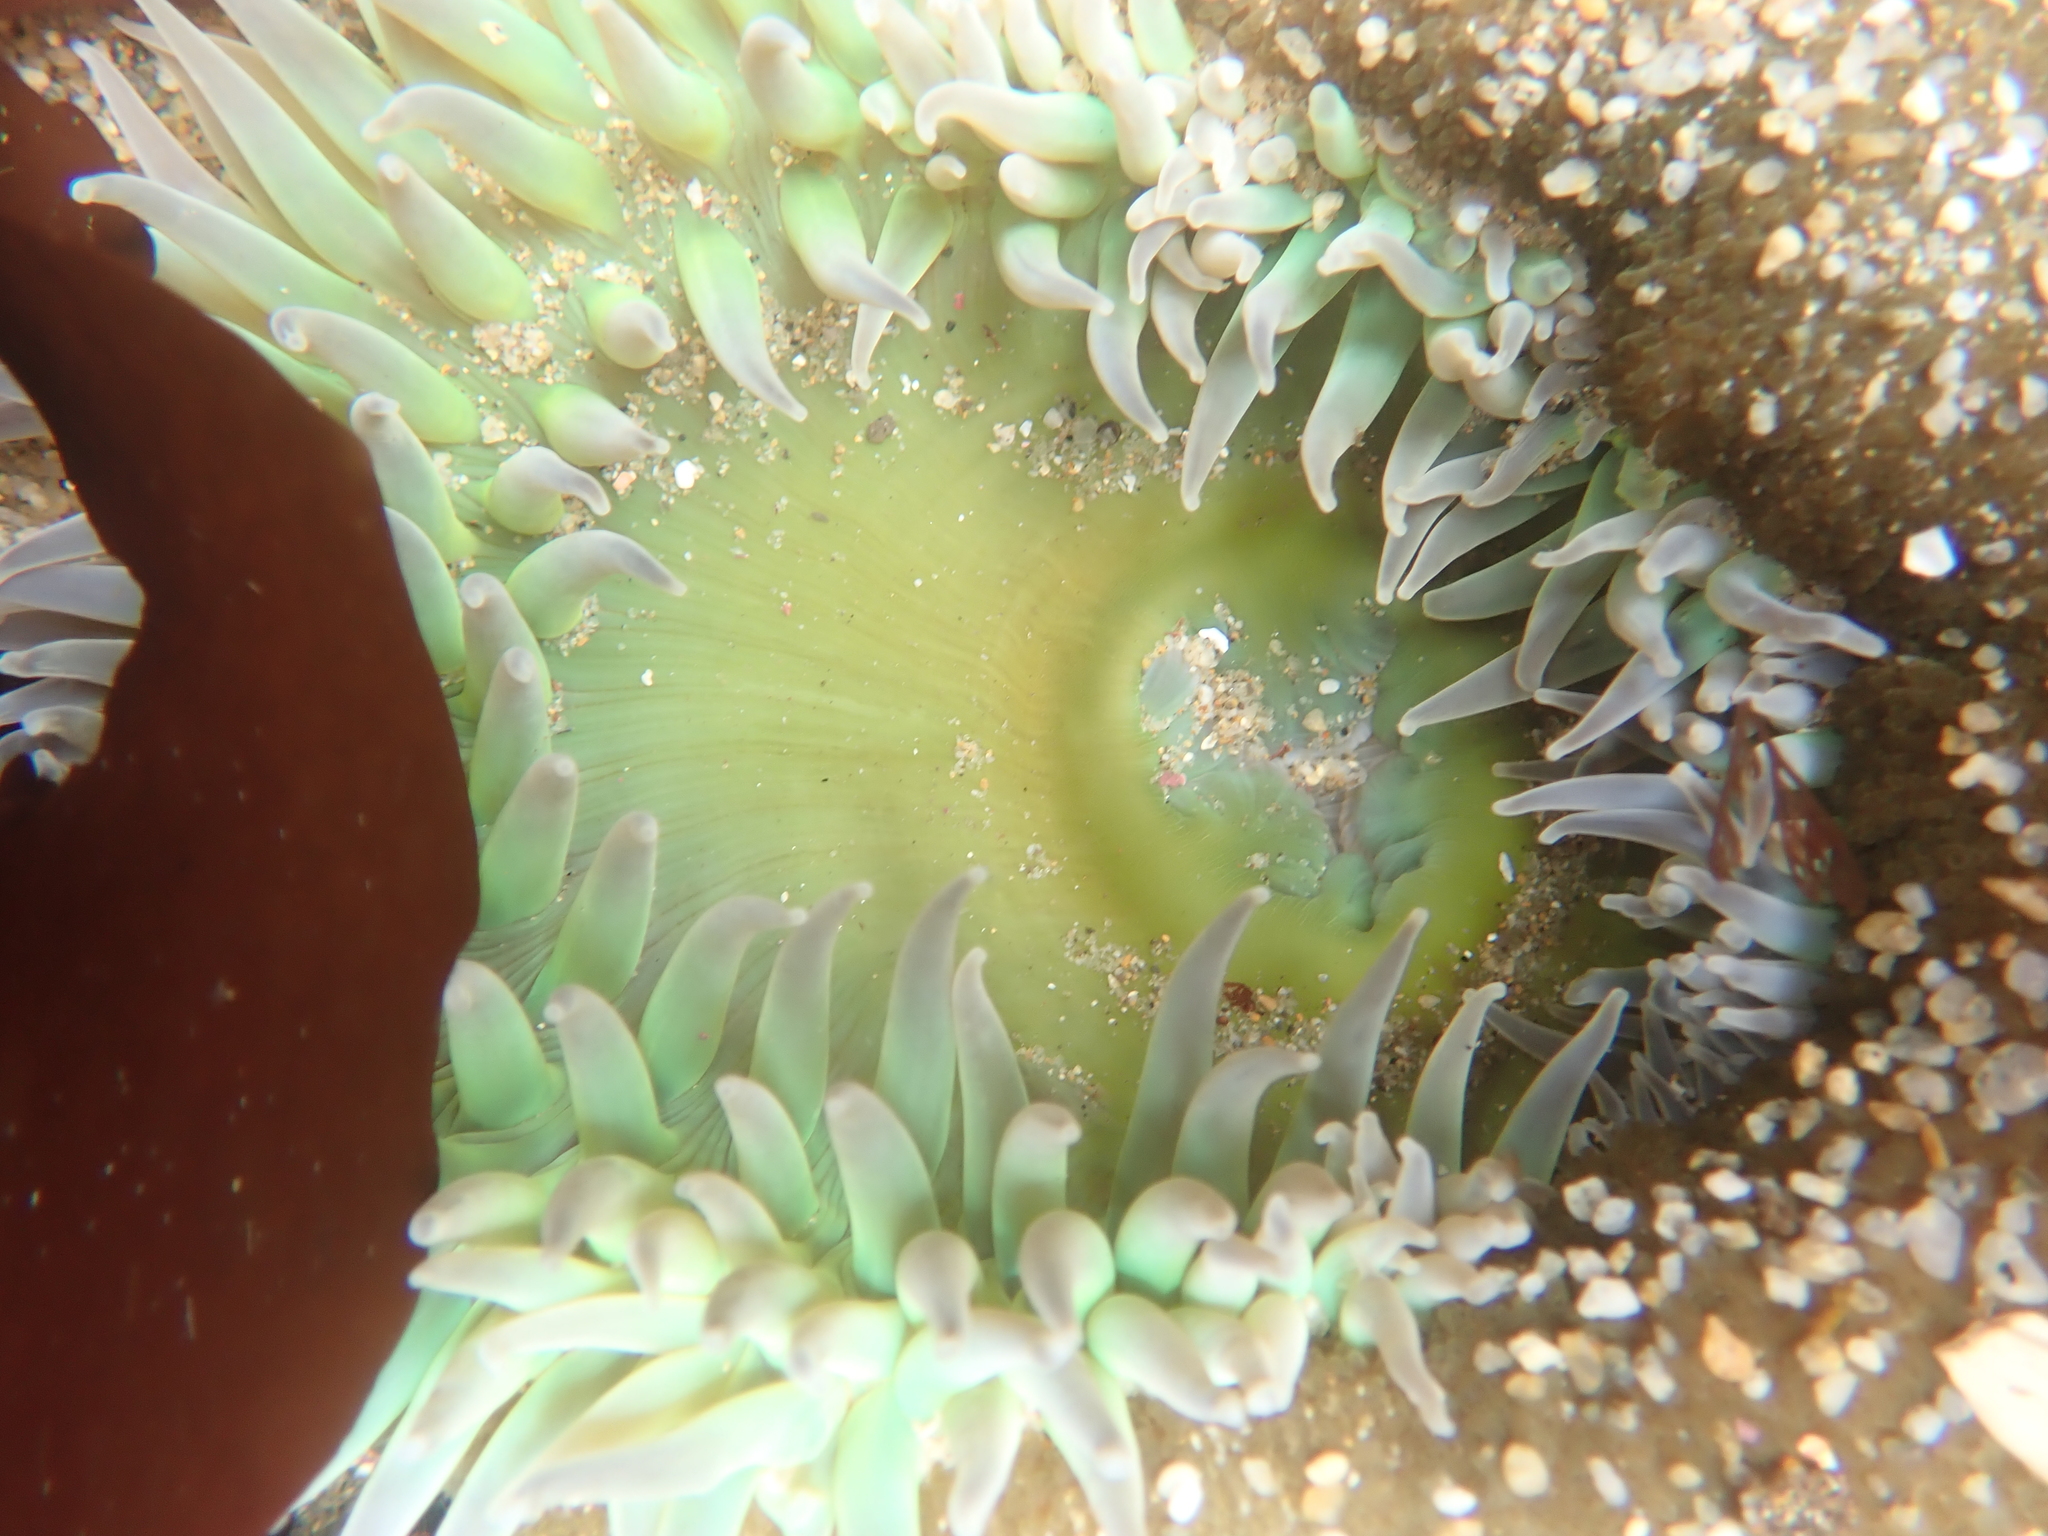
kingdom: Animalia
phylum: Cnidaria
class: Anthozoa
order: Actiniaria
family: Actiniidae
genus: Anthopleura
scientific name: Anthopleura xanthogrammica
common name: Giant green anemone
